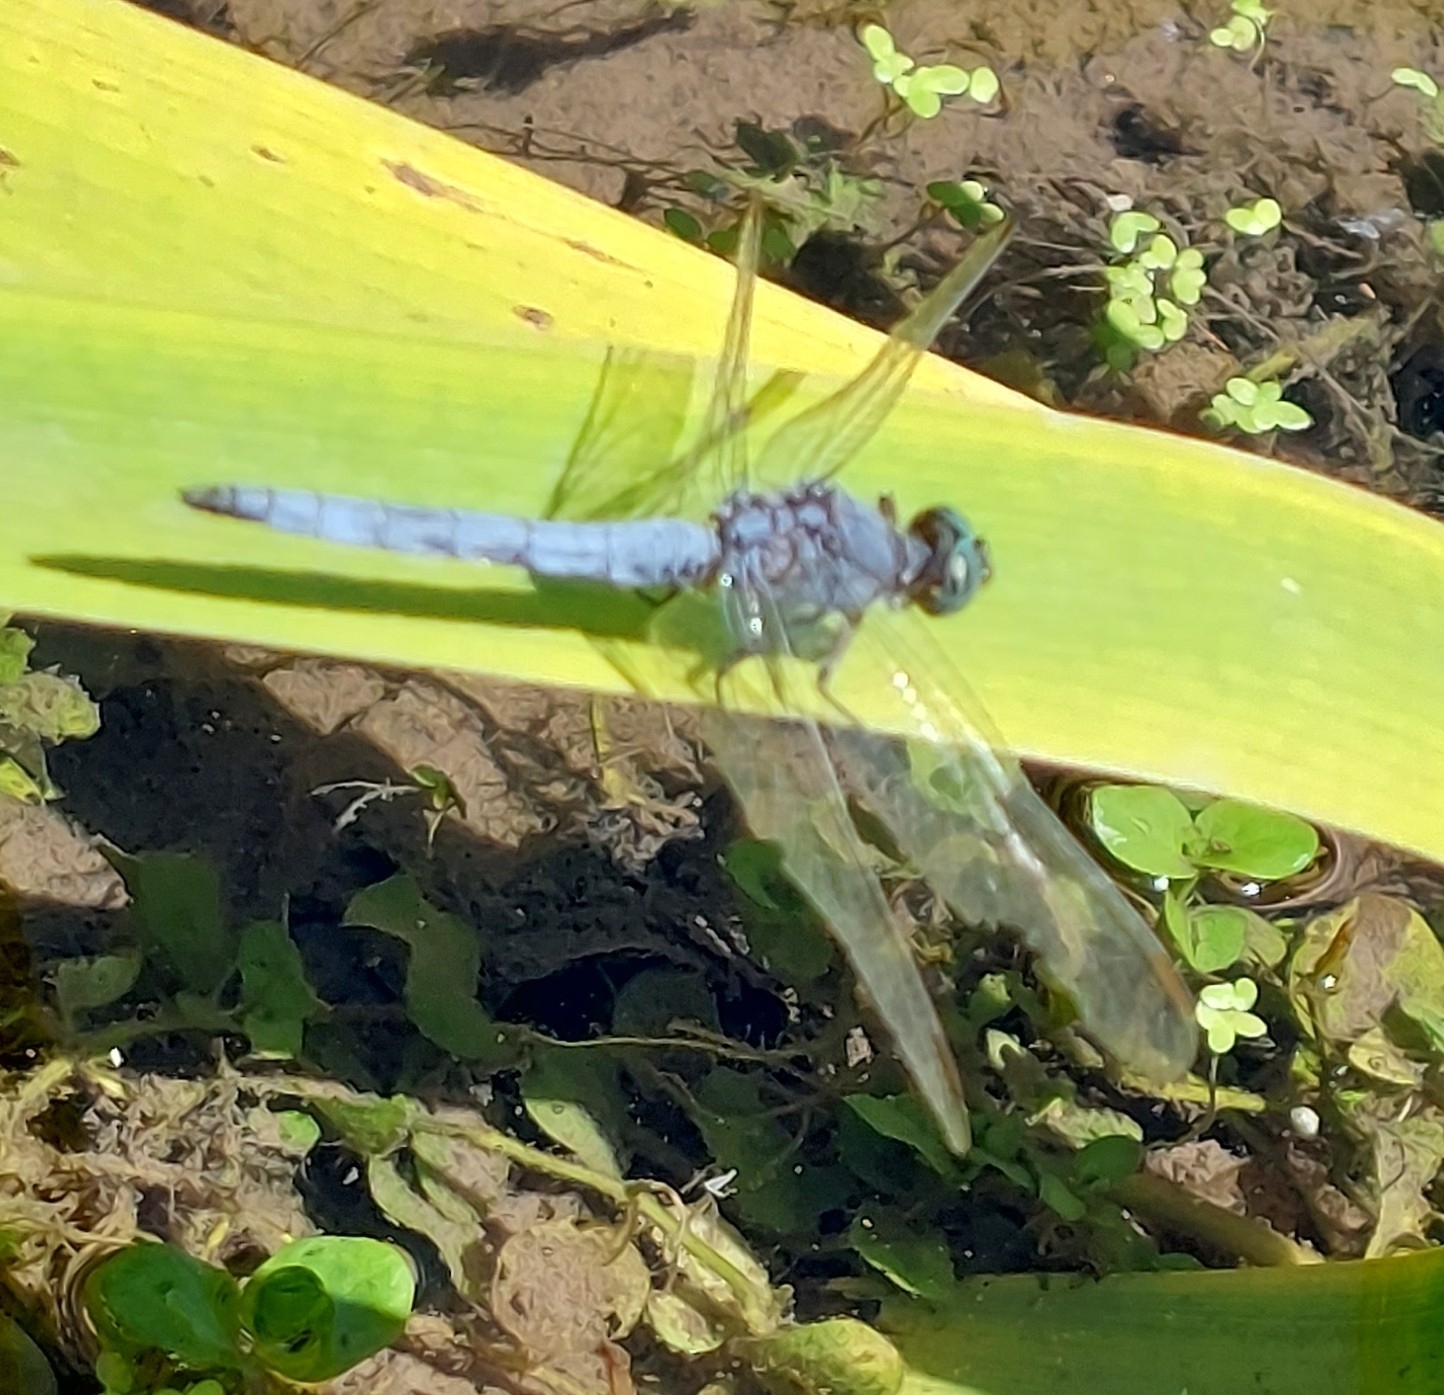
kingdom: Animalia
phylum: Arthropoda
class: Insecta
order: Odonata
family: Libellulidae
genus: Orthetrum
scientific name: Orthetrum coerulescens
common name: Keeled skimmer
